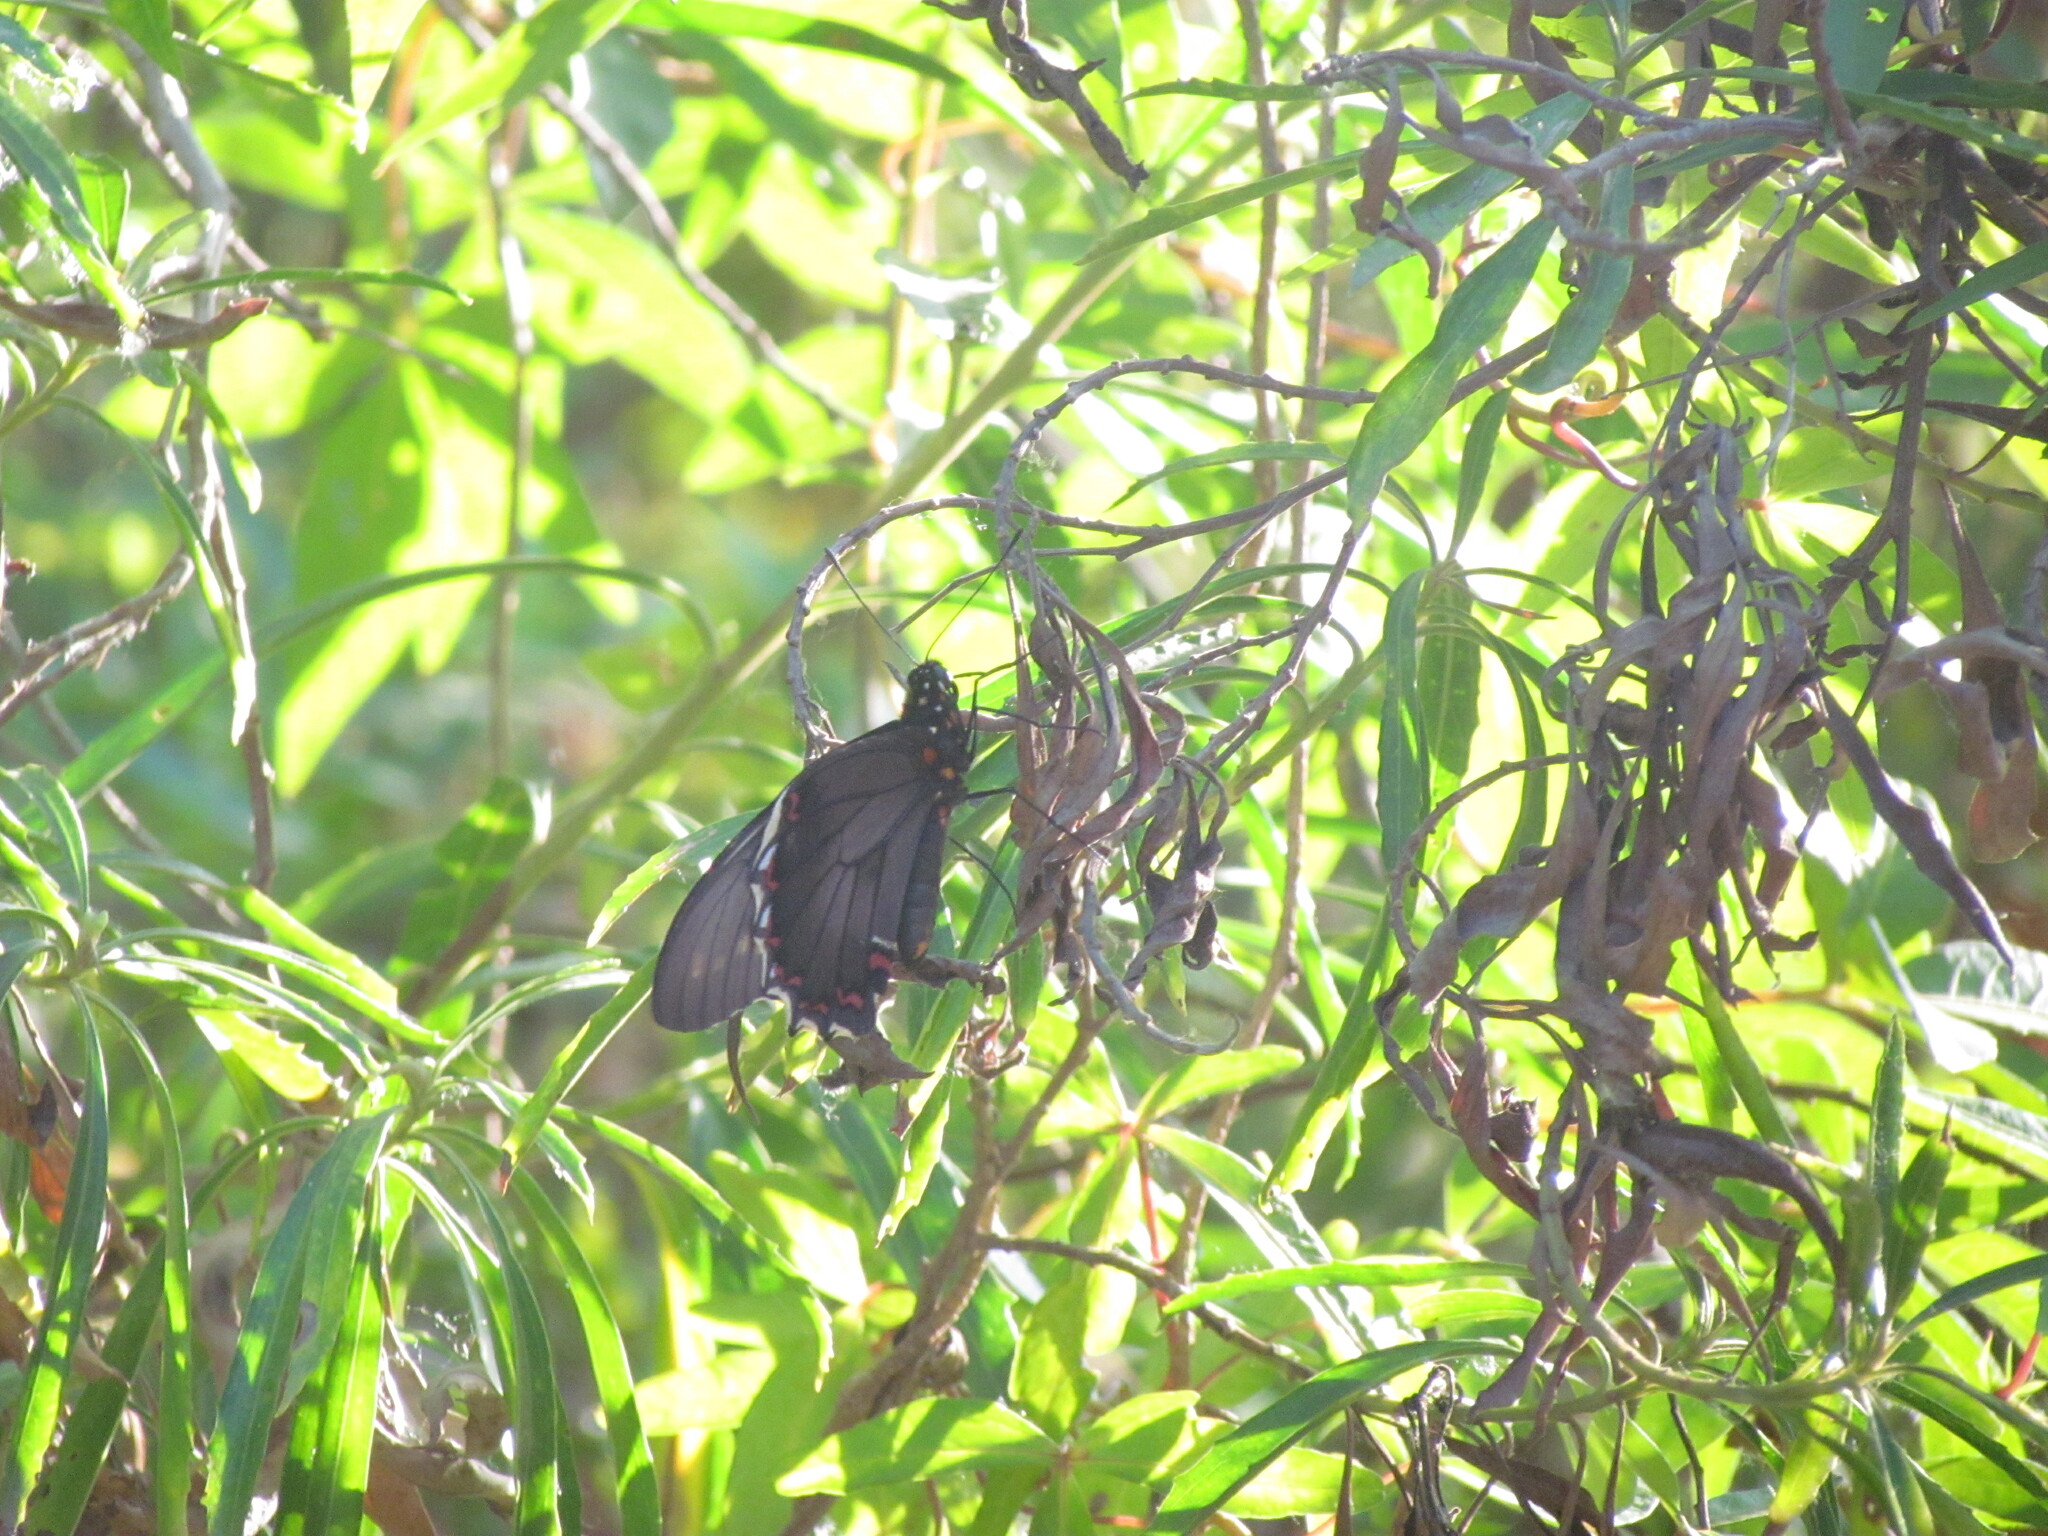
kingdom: Animalia
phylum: Arthropoda
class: Insecta
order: Lepidoptera
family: Papilionidae
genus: Battus
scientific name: Battus polydamas
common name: Polydamas swallowtail
